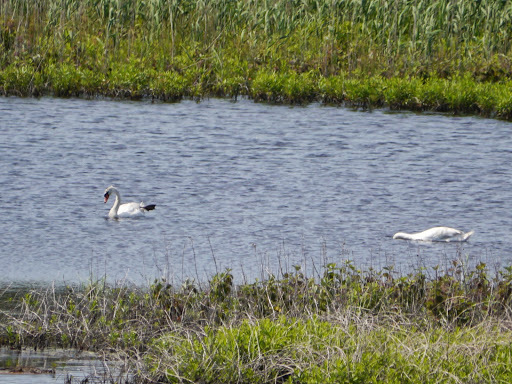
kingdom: Animalia
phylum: Chordata
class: Aves
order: Anseriformes
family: Anatidae
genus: Cygnus
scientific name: Cygnus olor
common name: Mute swan
